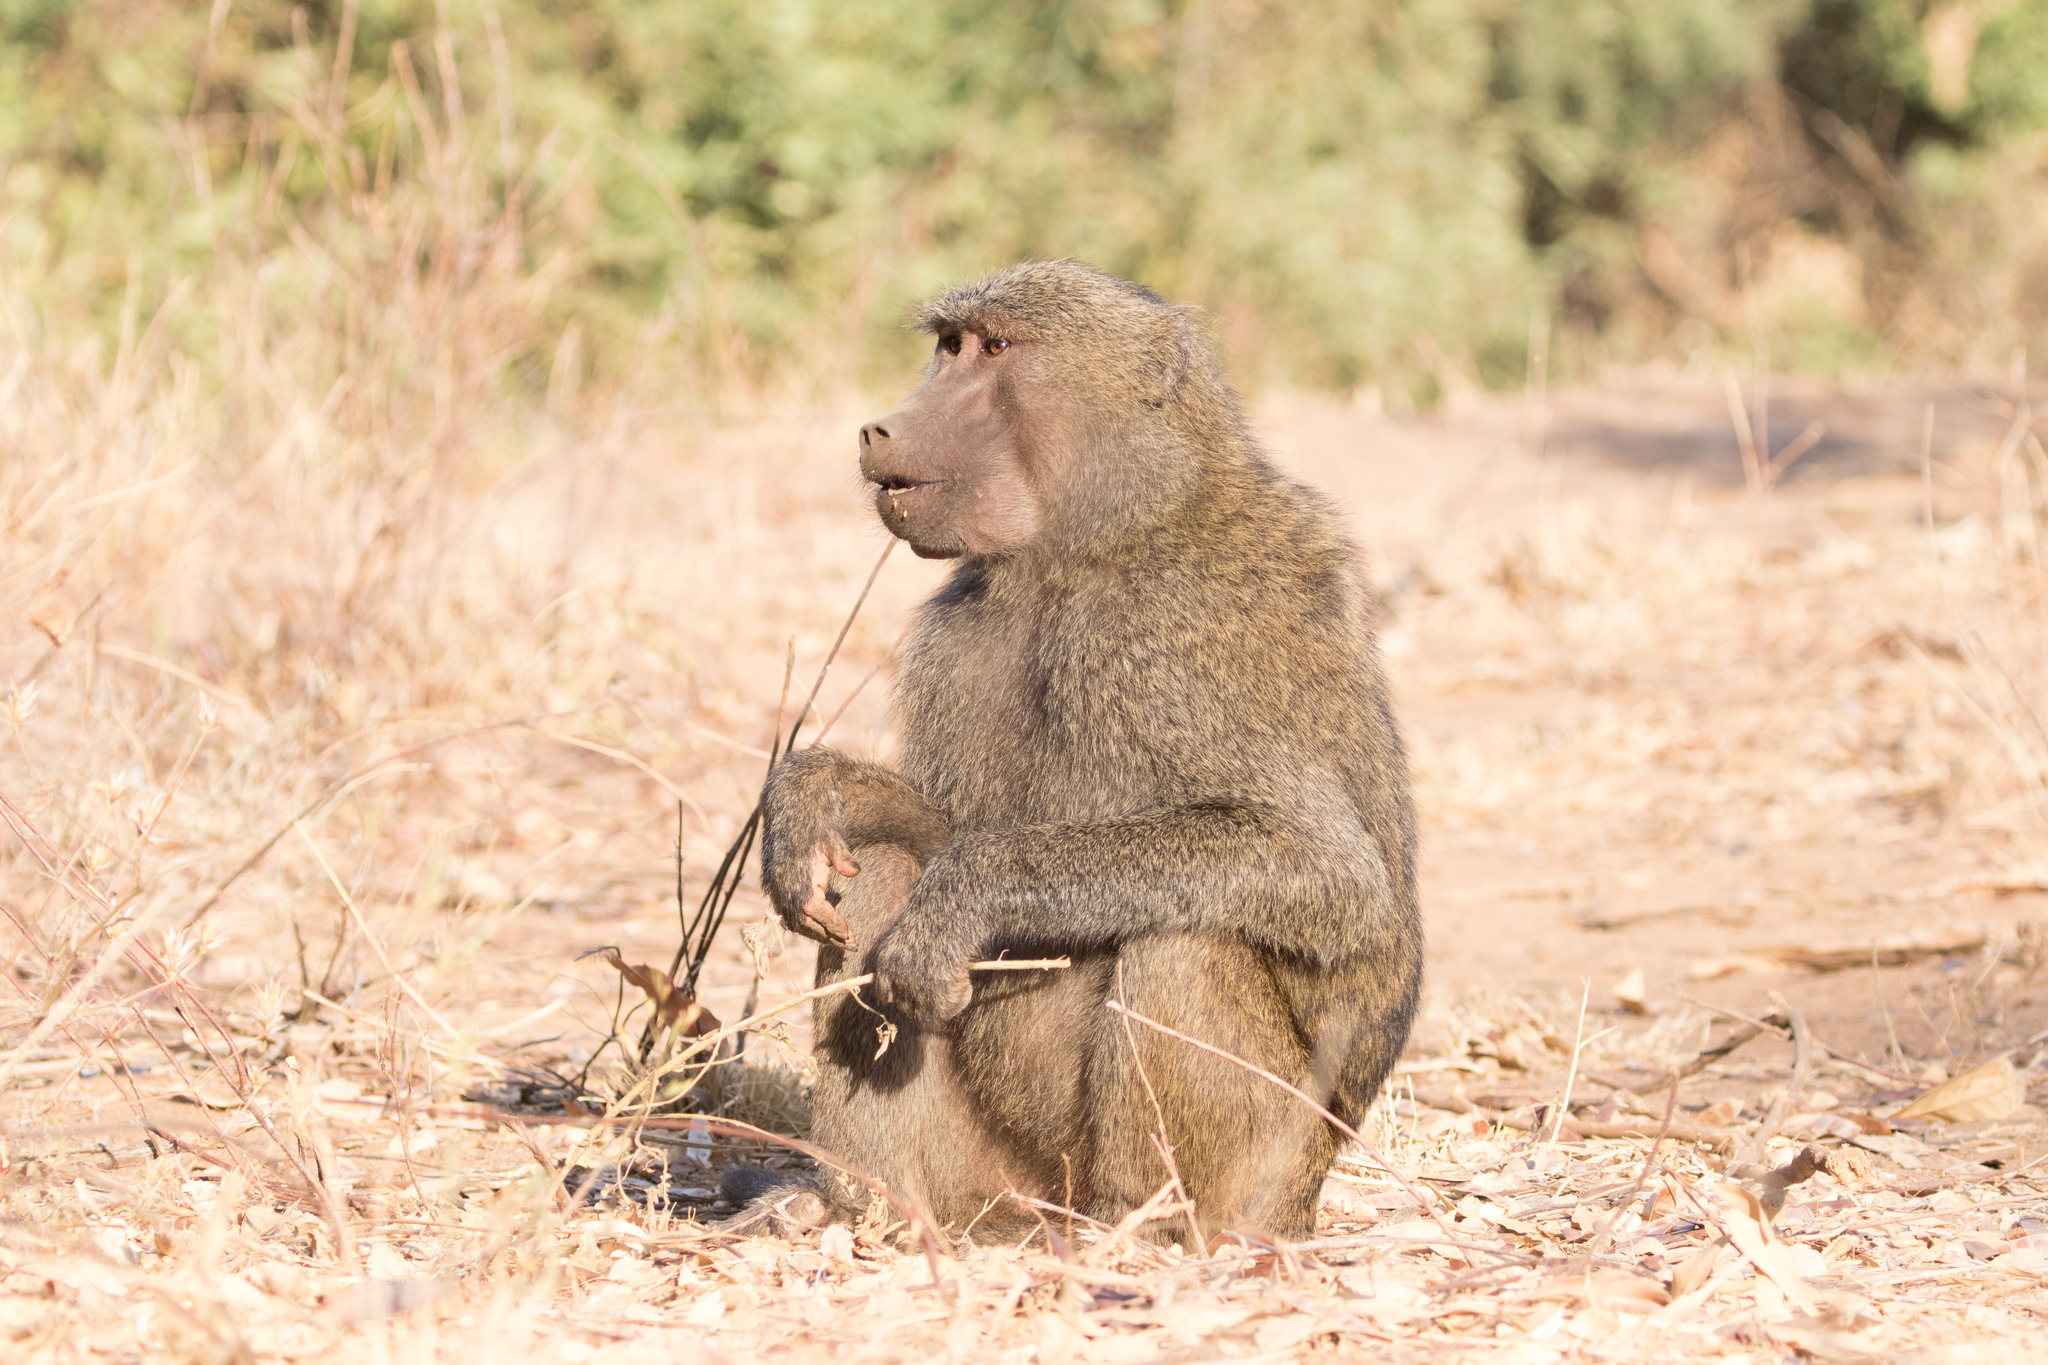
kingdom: Animalia
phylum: Chordata
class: Mammalia
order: Primates
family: Cercopithecidae
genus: Papio
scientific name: Papio anubis
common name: Olive baboon
